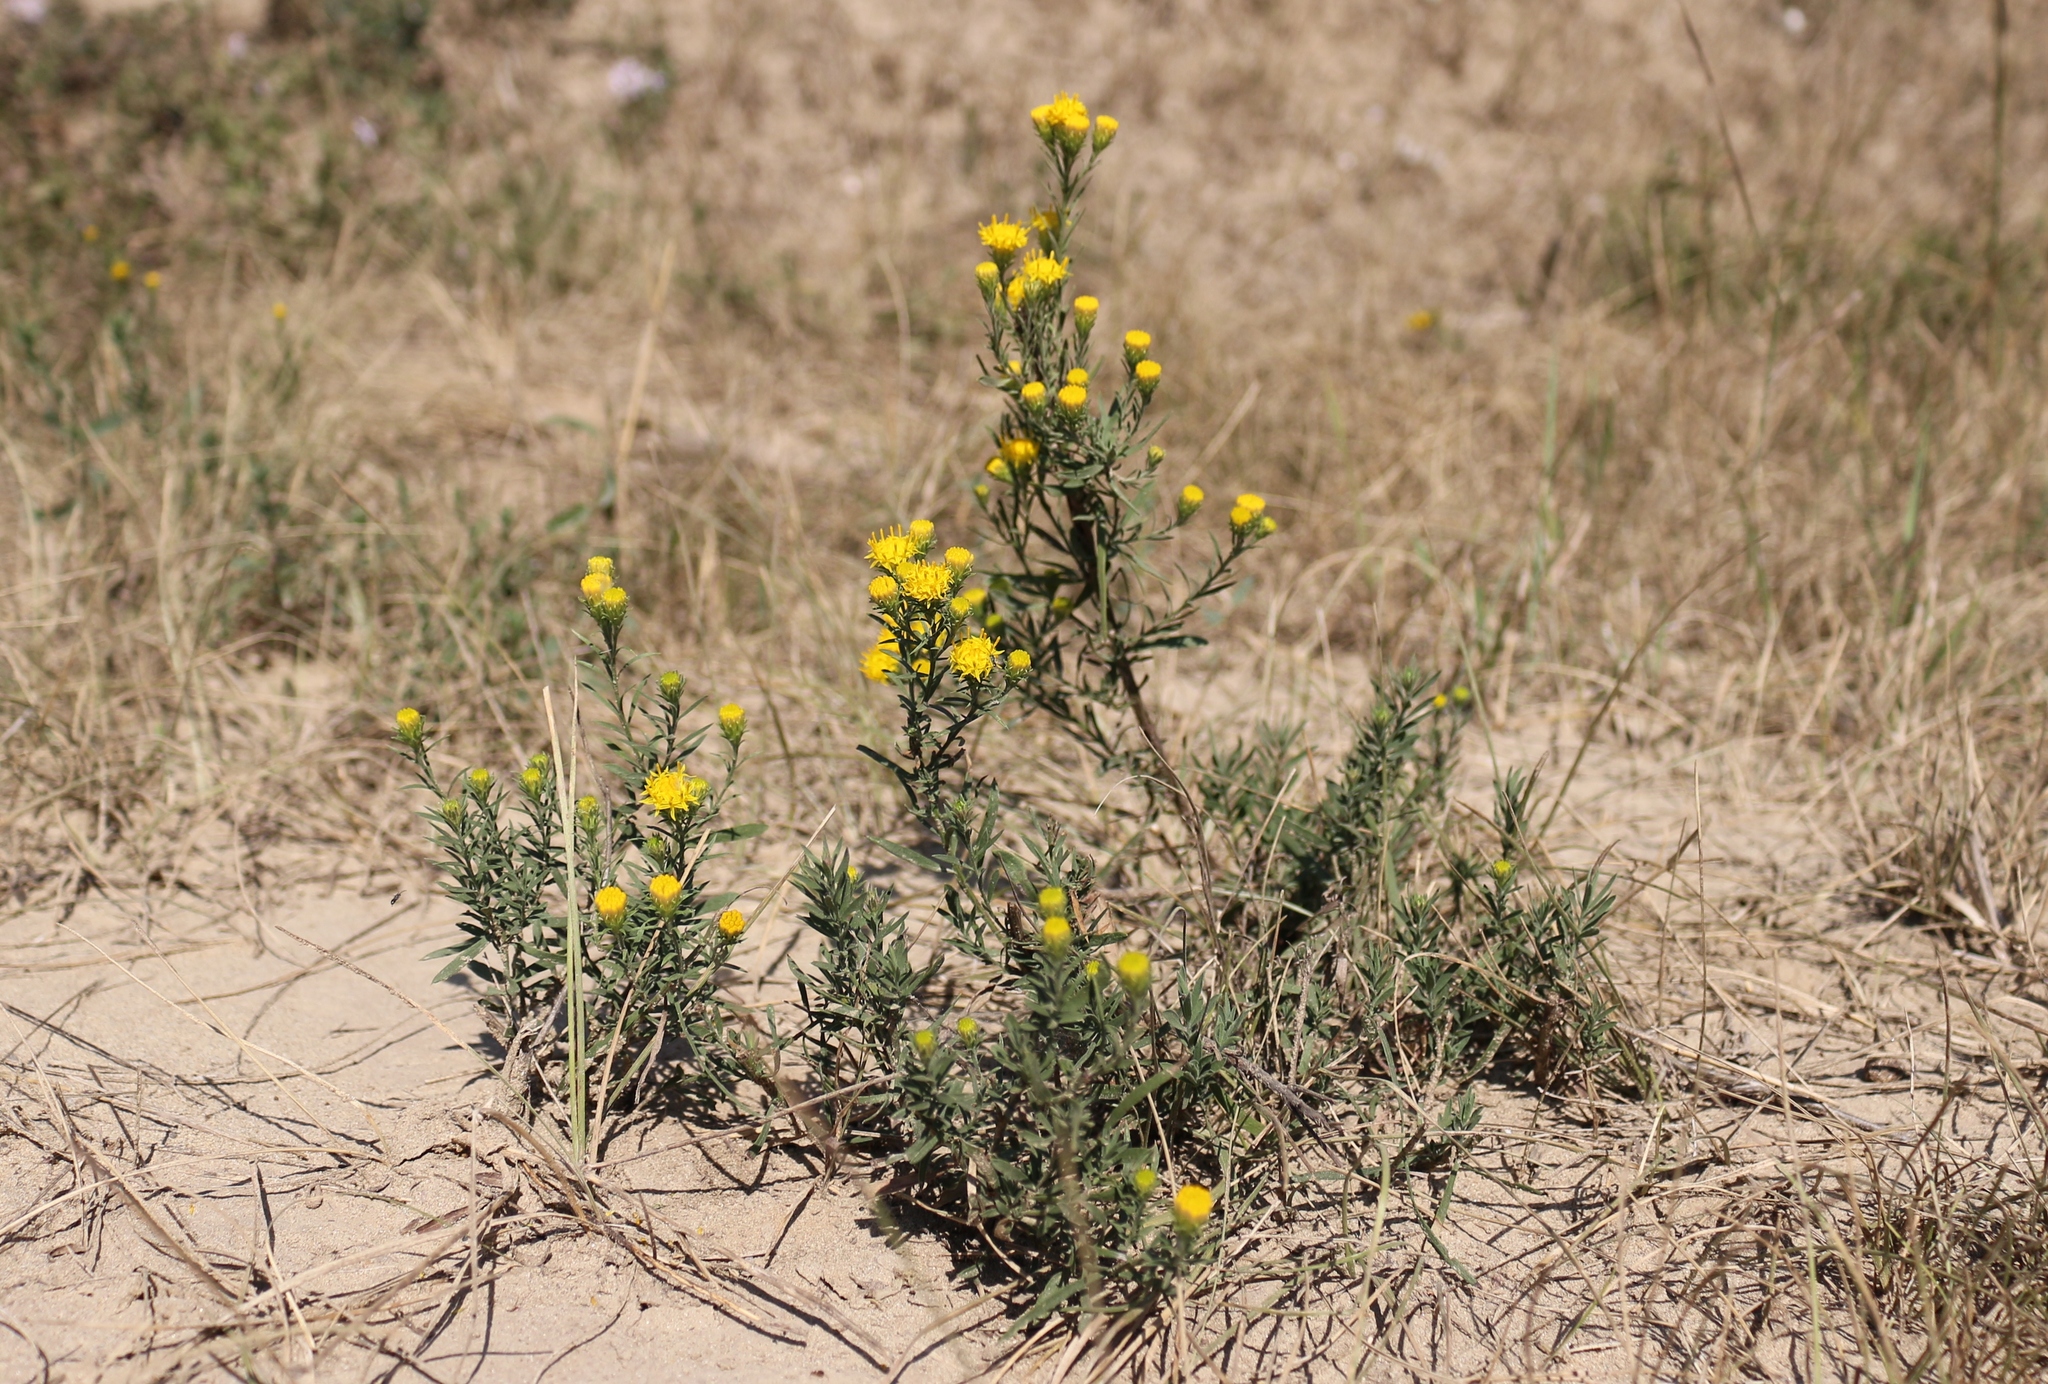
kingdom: Plantae
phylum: Tracheophyta
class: Magnoliopsida
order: Asterales
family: Asteraceae
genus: Galatella
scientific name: Galatella linosyris
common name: Goldilocks aster
